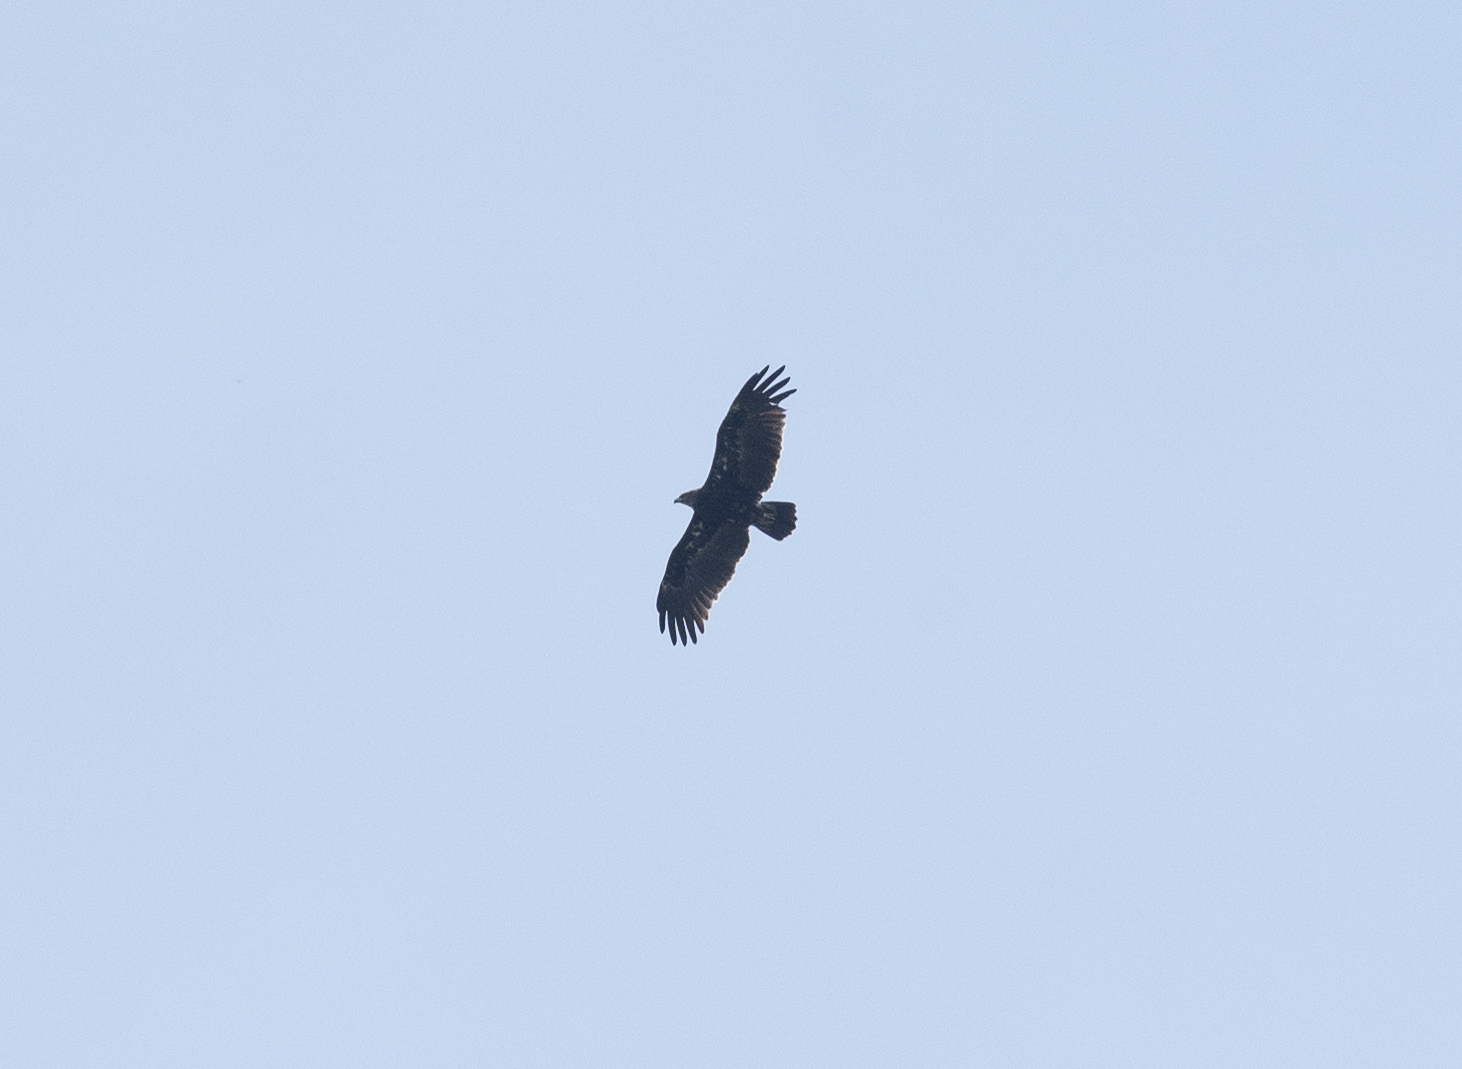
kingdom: Animalia
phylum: Chordata
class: Aves
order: Accipitriformes
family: Accipitridae
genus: Aquila
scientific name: Aquila clanga
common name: Greater spotted eagle
